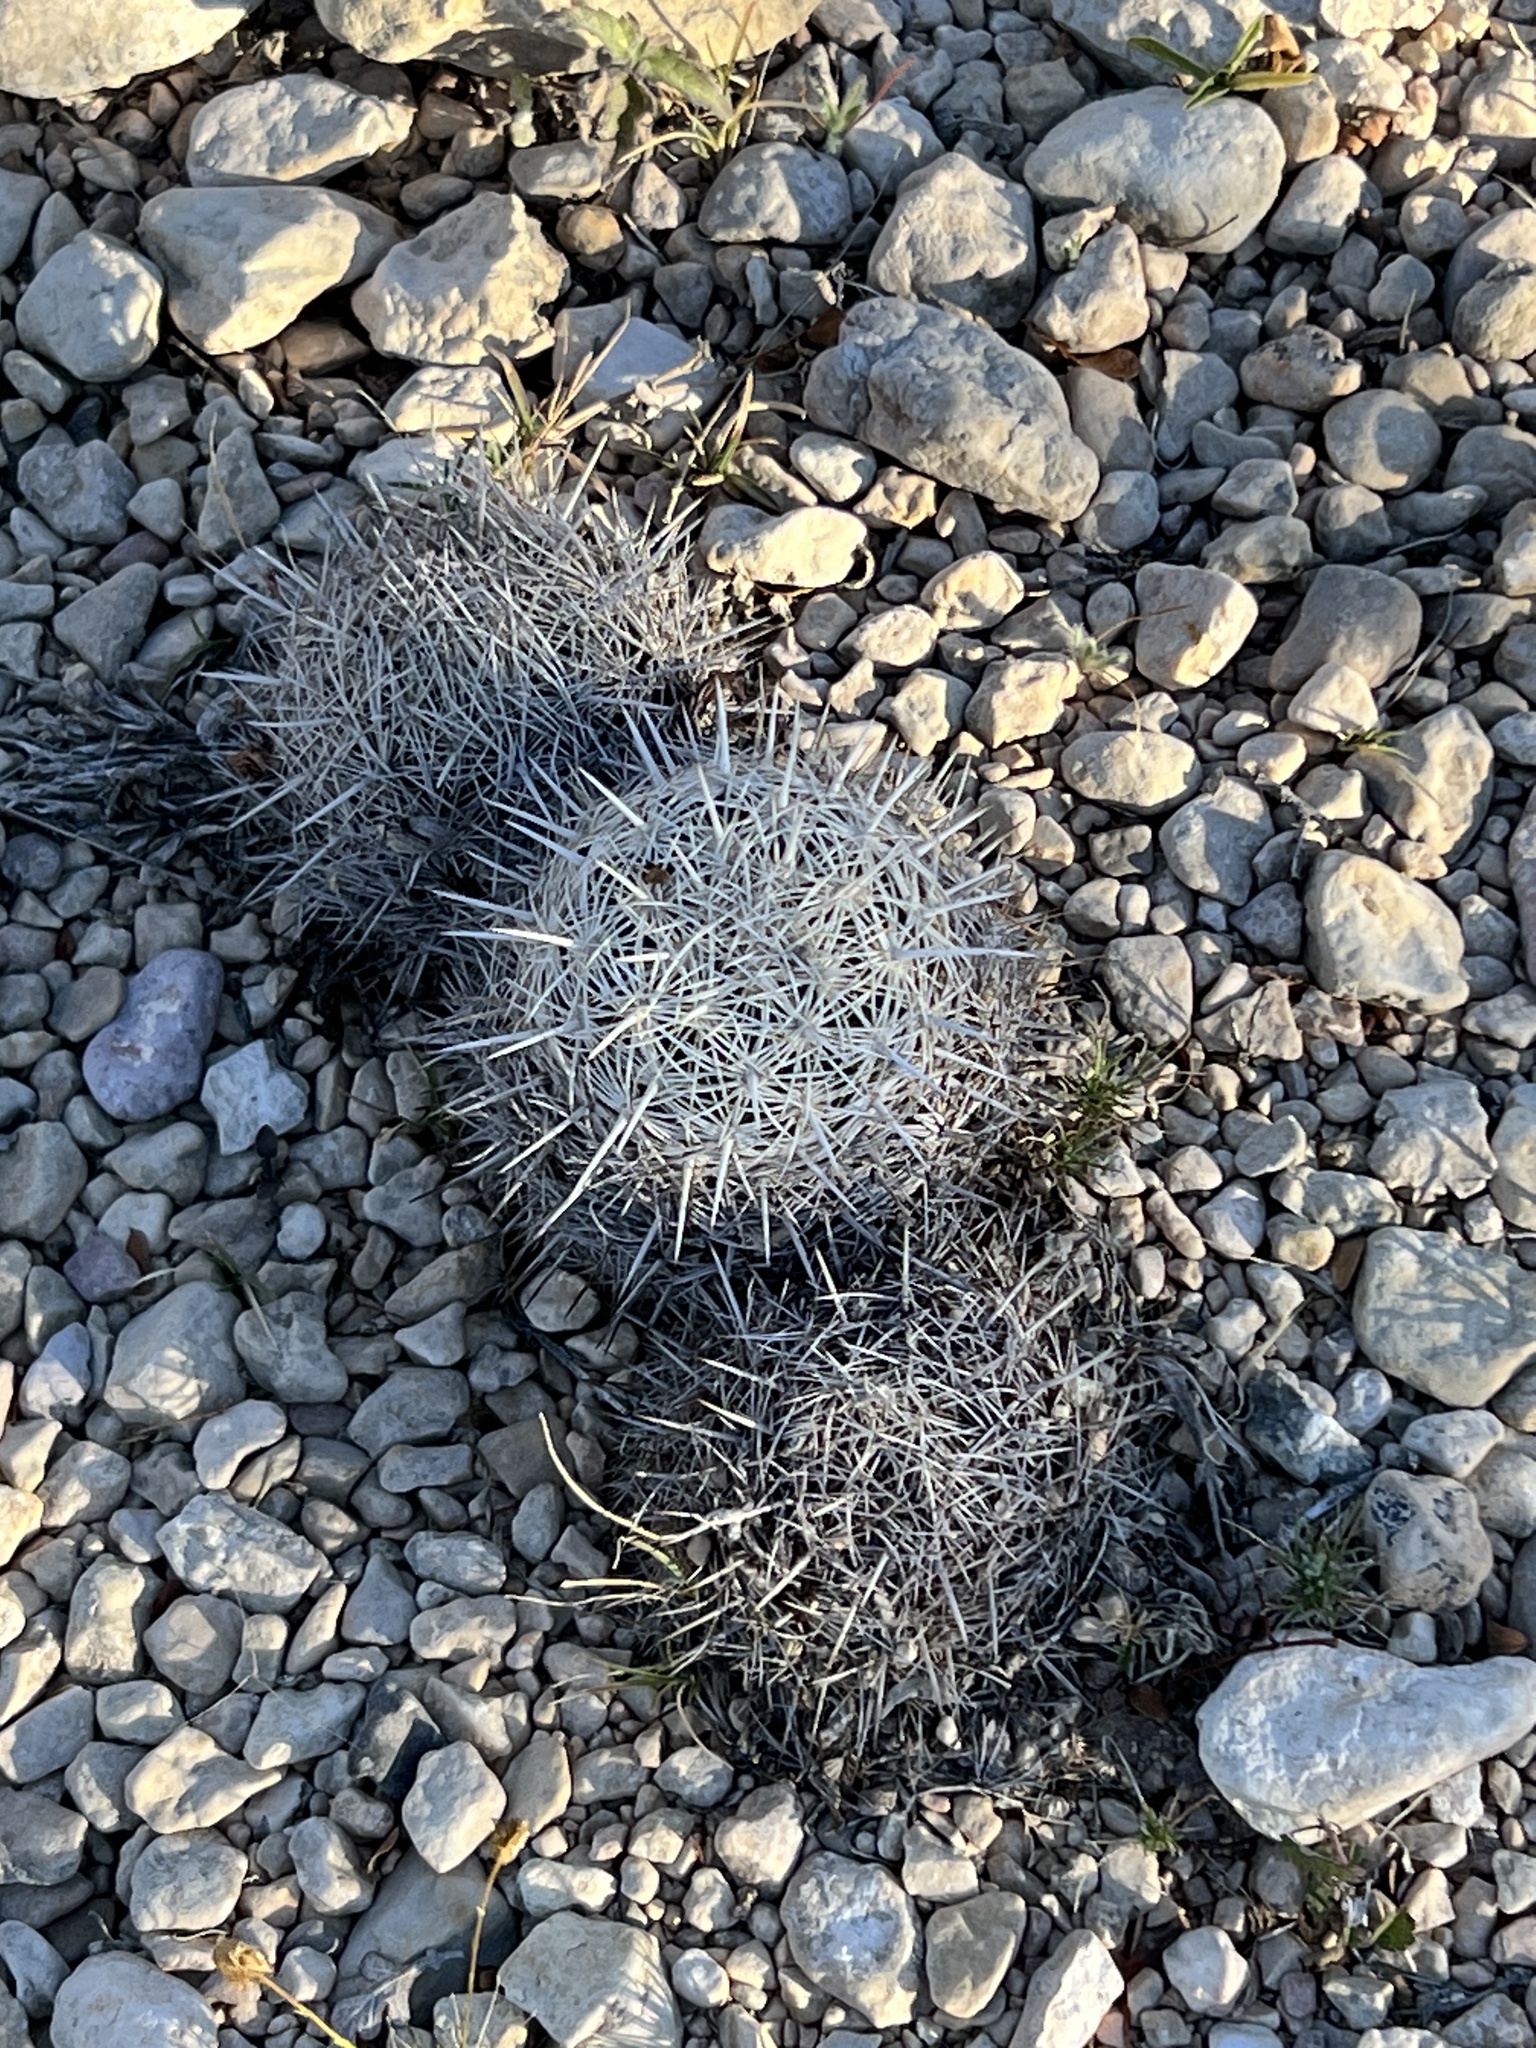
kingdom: Plantae
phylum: Tracheophyta
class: Magnoliopsida
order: Caryophyllales
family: Cactaceae
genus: Coryphantha
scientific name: Coryphantha echinus
